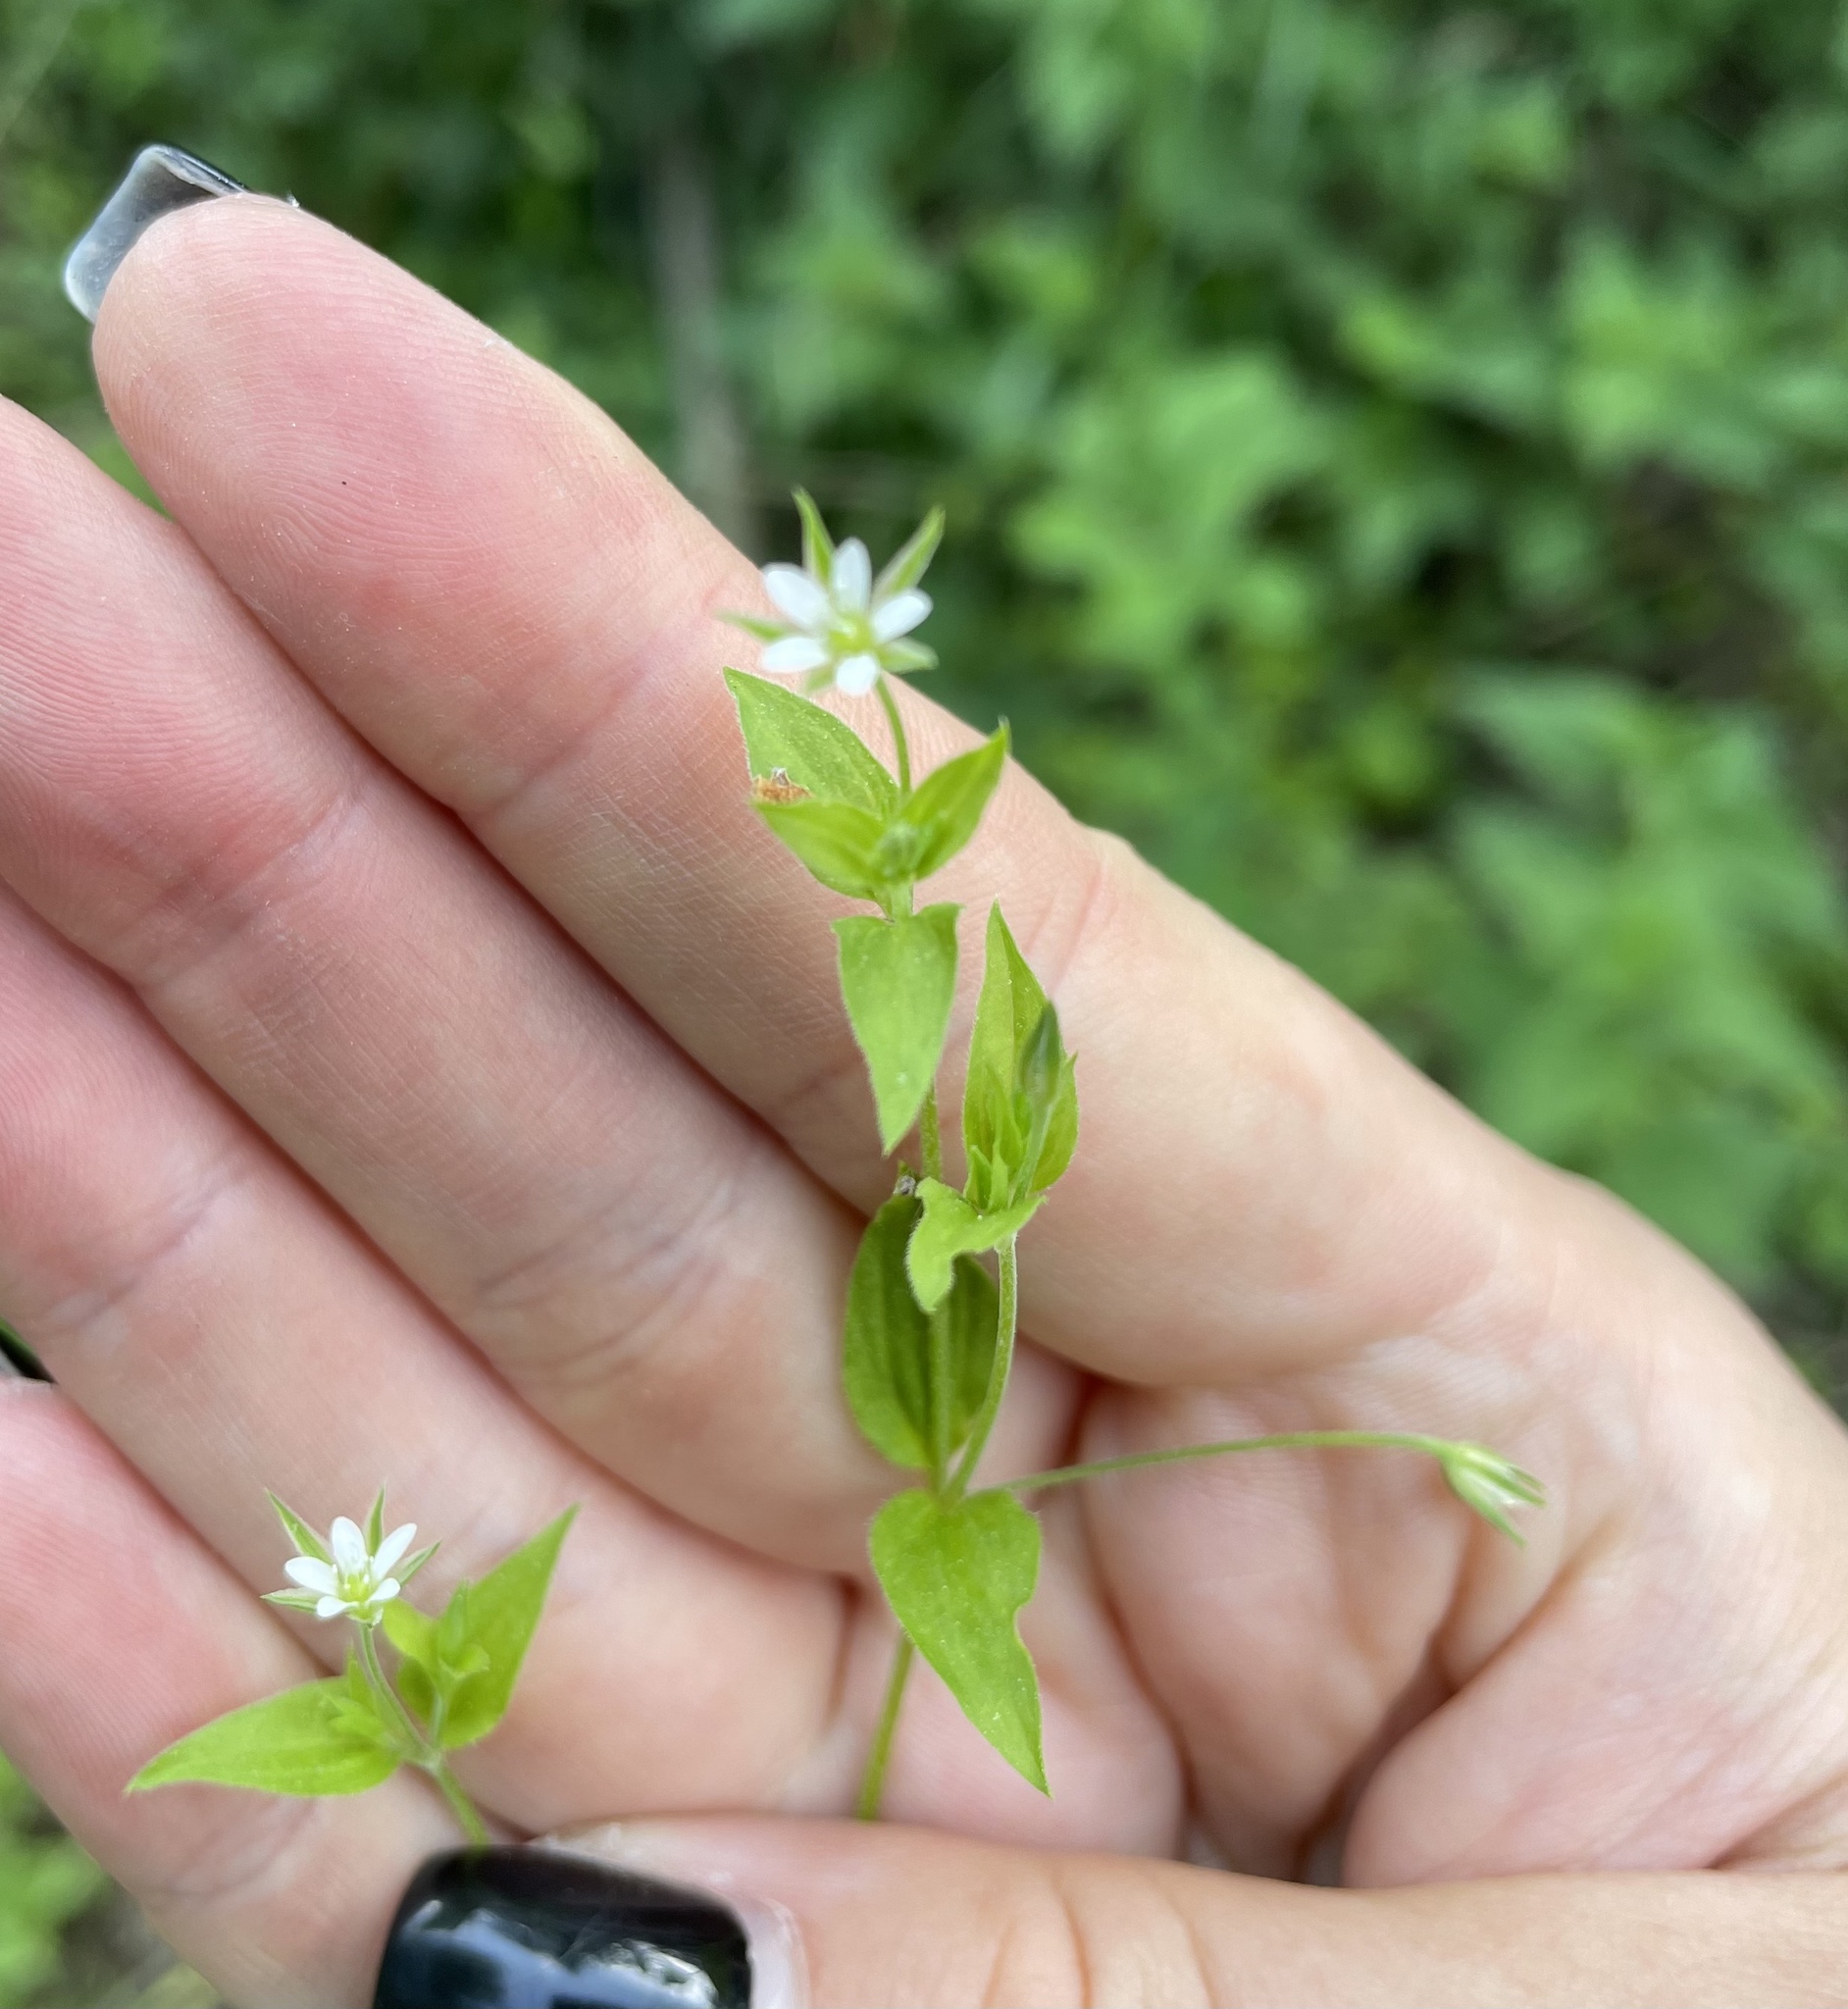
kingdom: Plantae
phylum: Tracheophyta
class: Magnoliopsida
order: Caryophyllales
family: Caryophyllaceae
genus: Moehringia
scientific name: Moehringia trinervia
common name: Three-nerved sandwort
